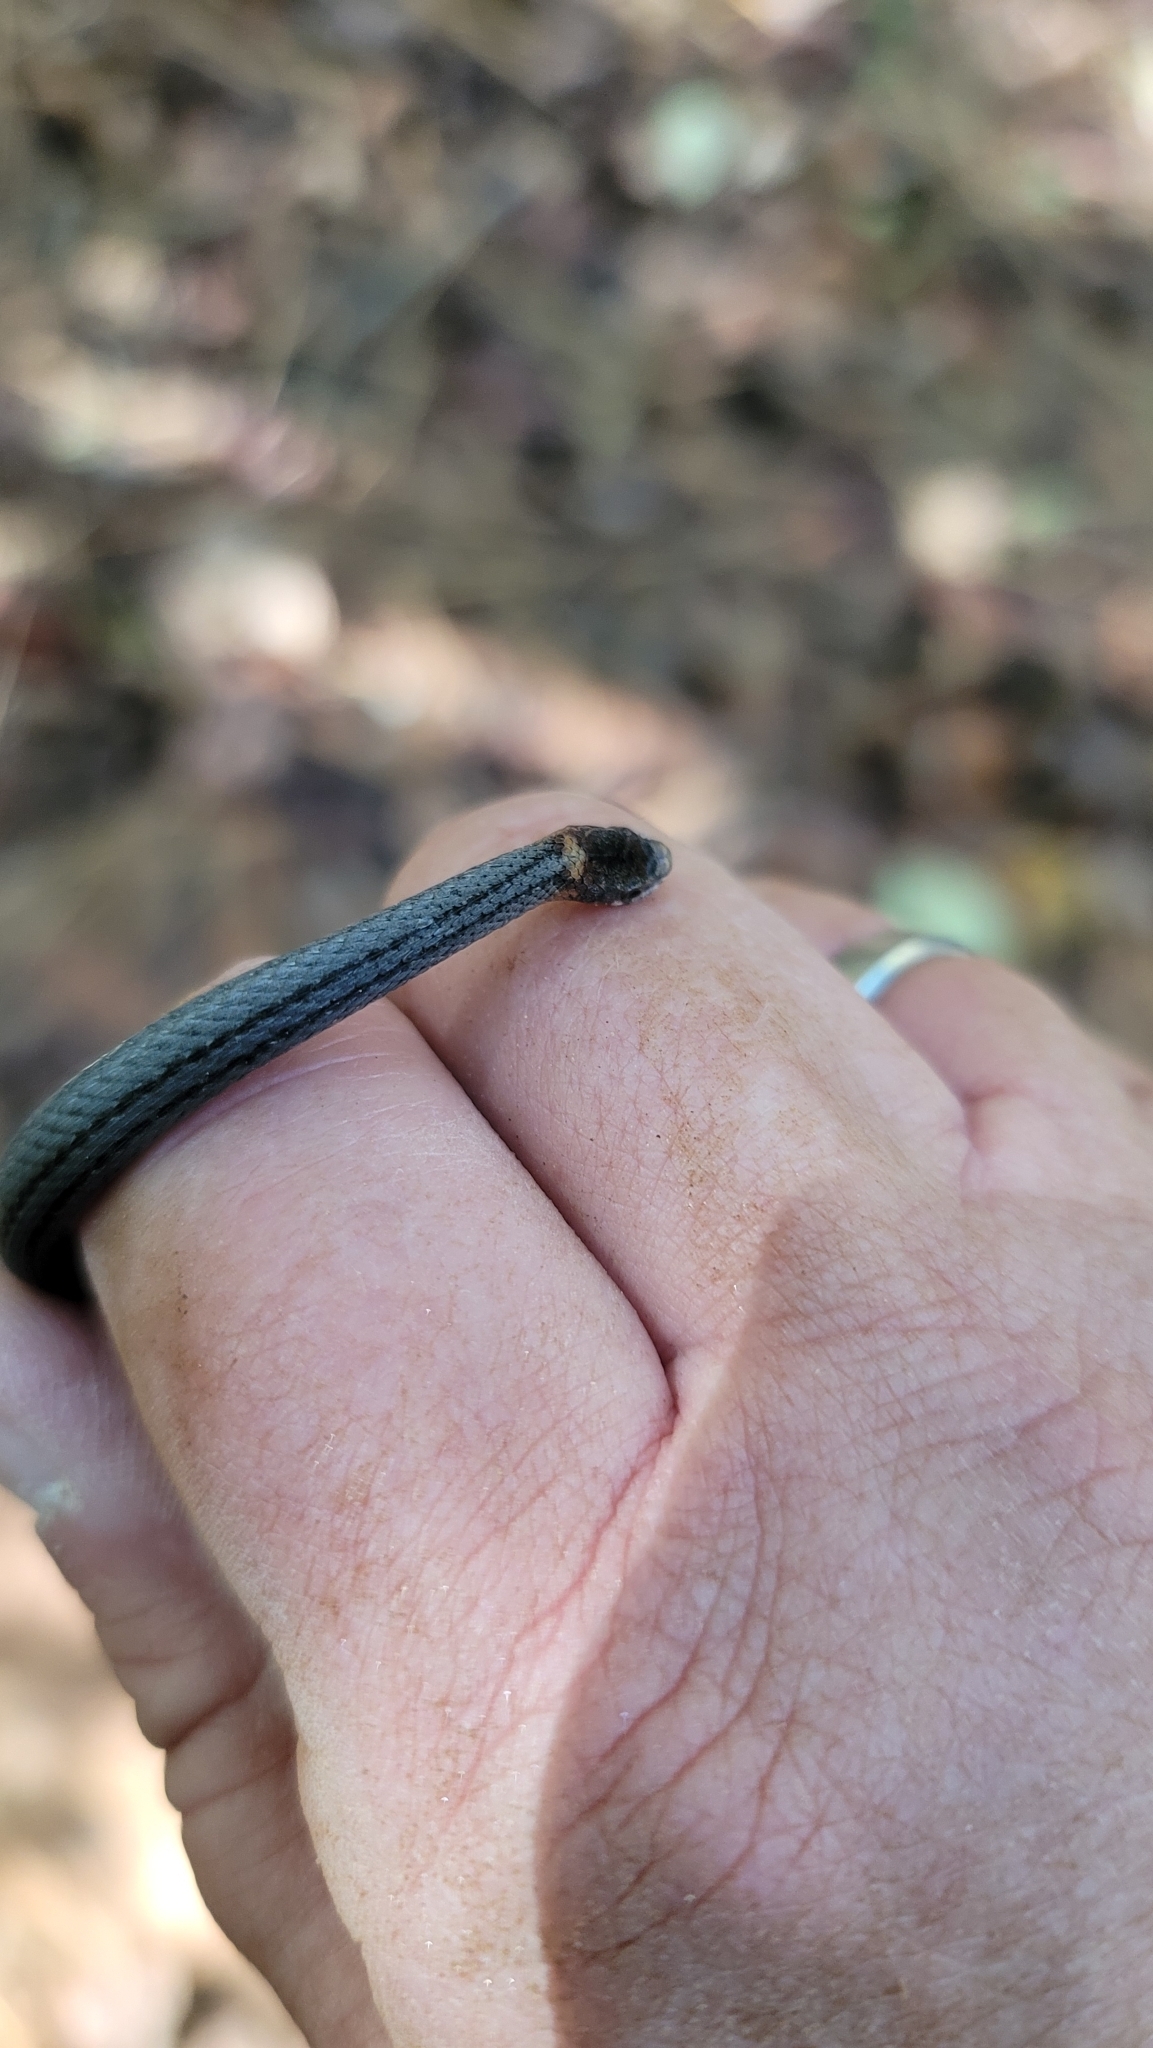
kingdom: Animalia
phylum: Chordata
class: Squamata
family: Colubridae
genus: Storeria
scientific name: Storeria occipitomaculata
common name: Redbelly snake
